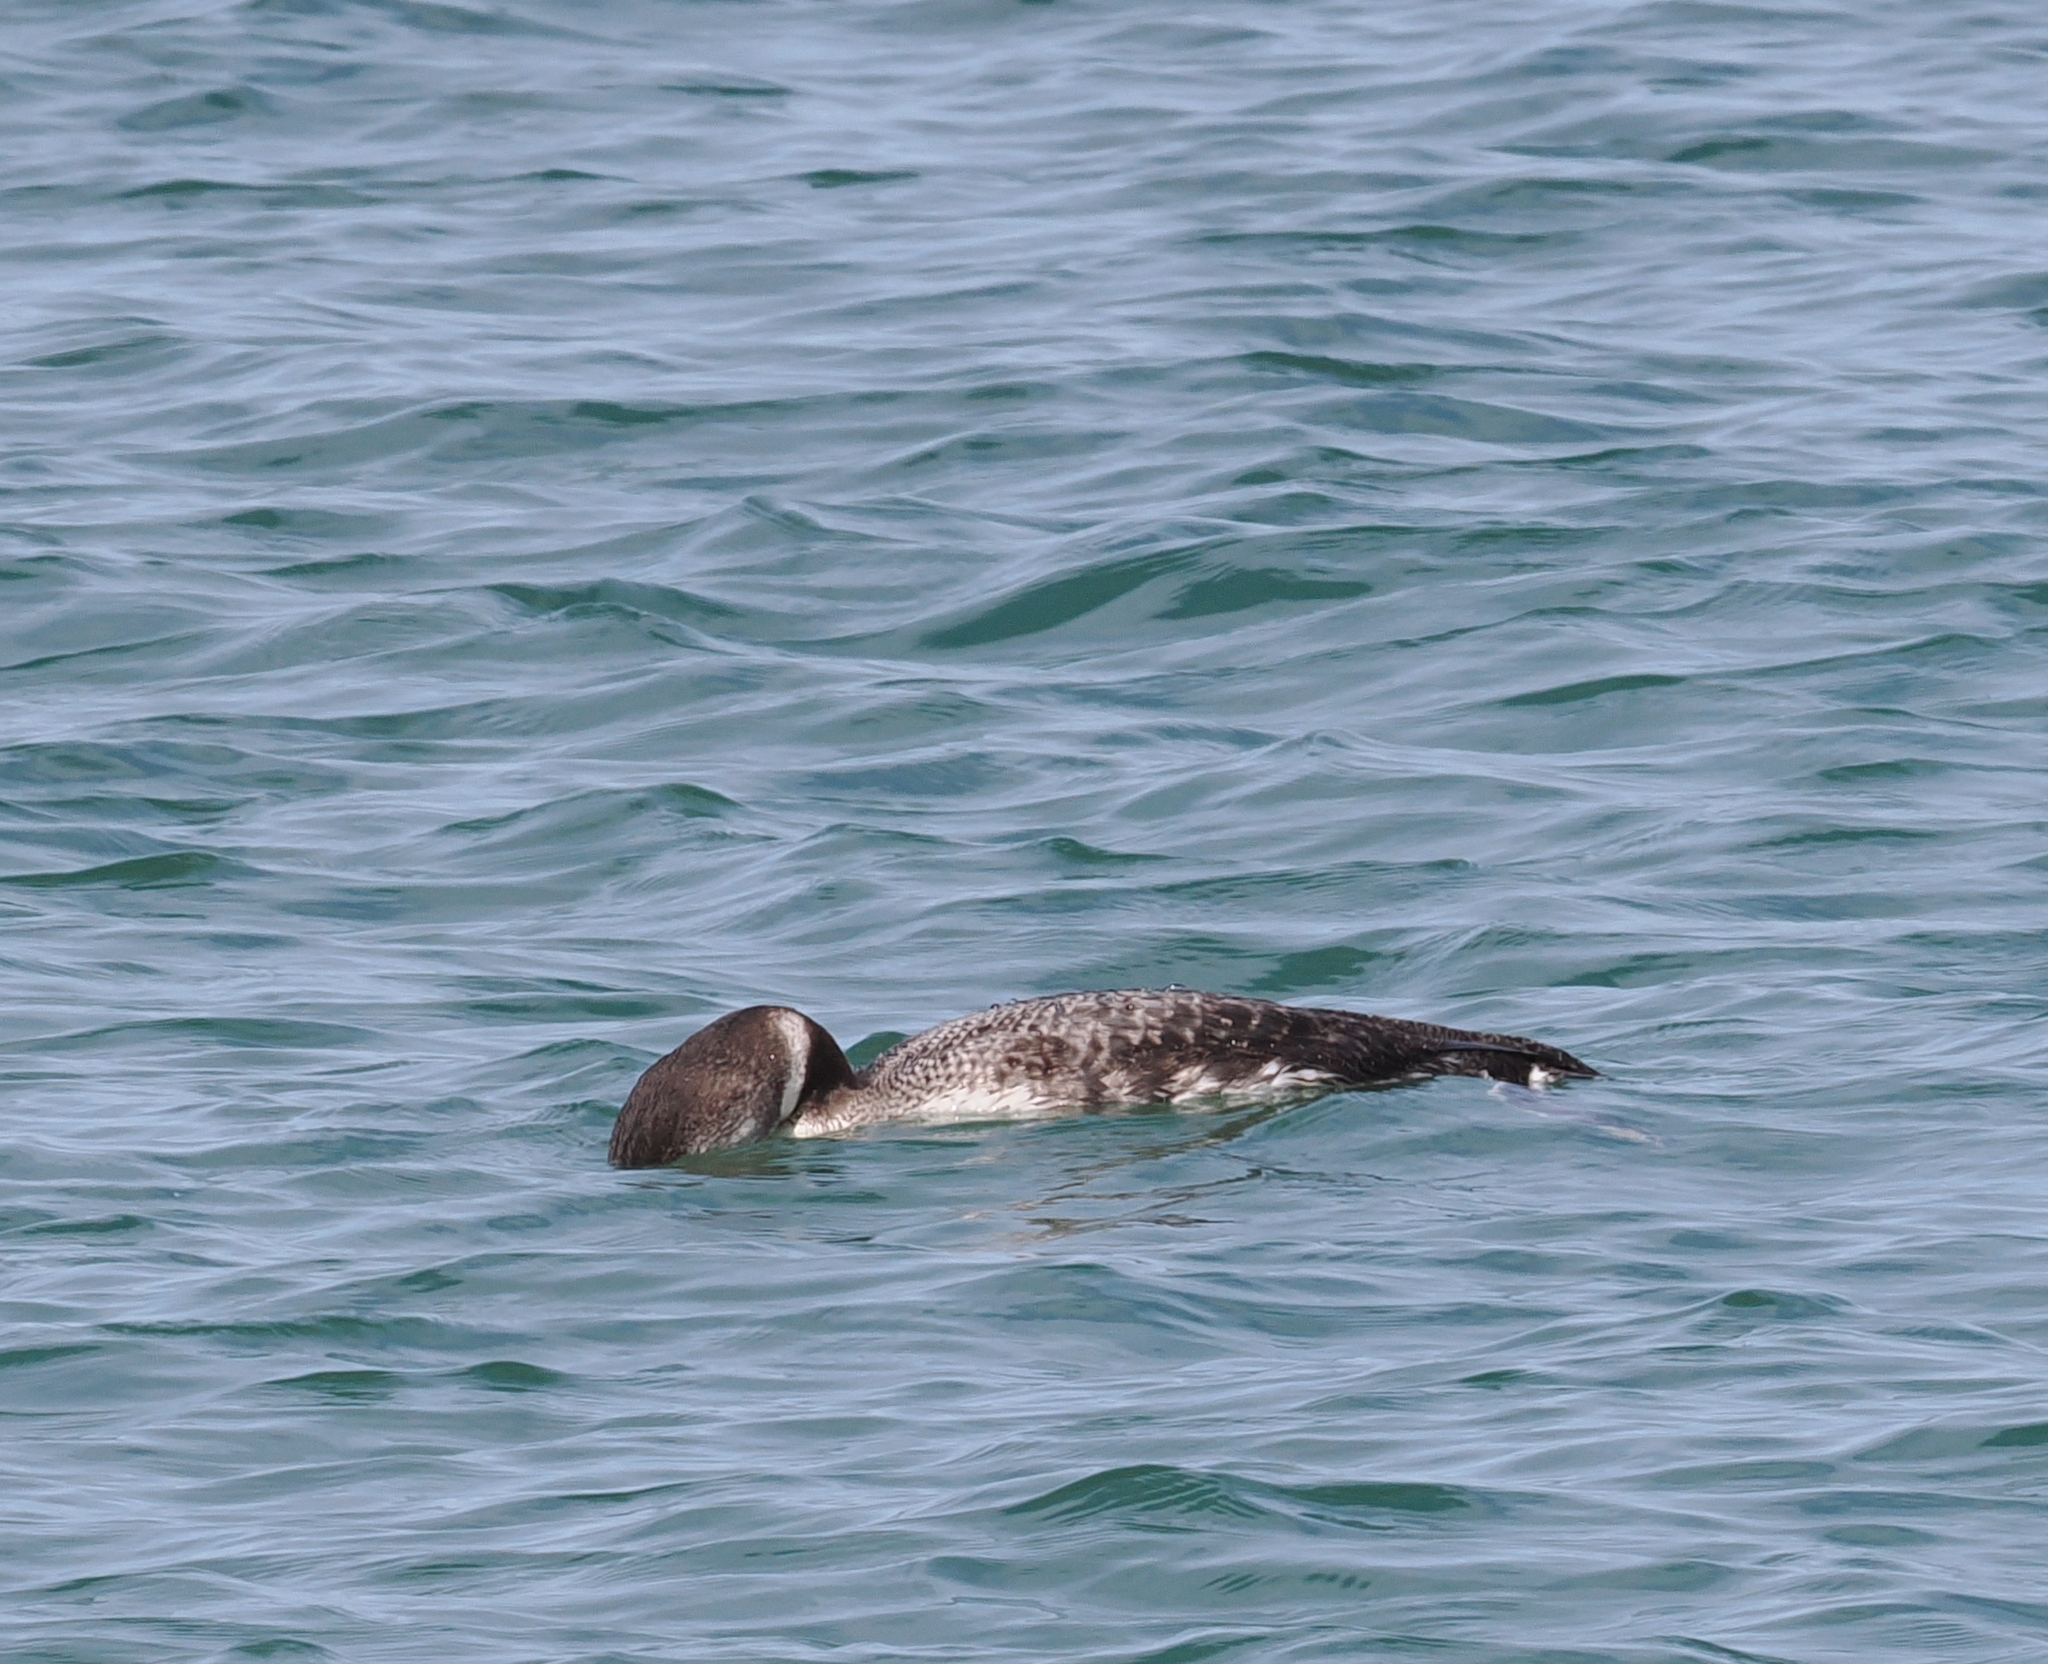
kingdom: Animalia
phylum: Chordata
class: Aves
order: Gaviiformes
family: Gaviidae
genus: Gavia
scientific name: Gavia immer
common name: Common loon
